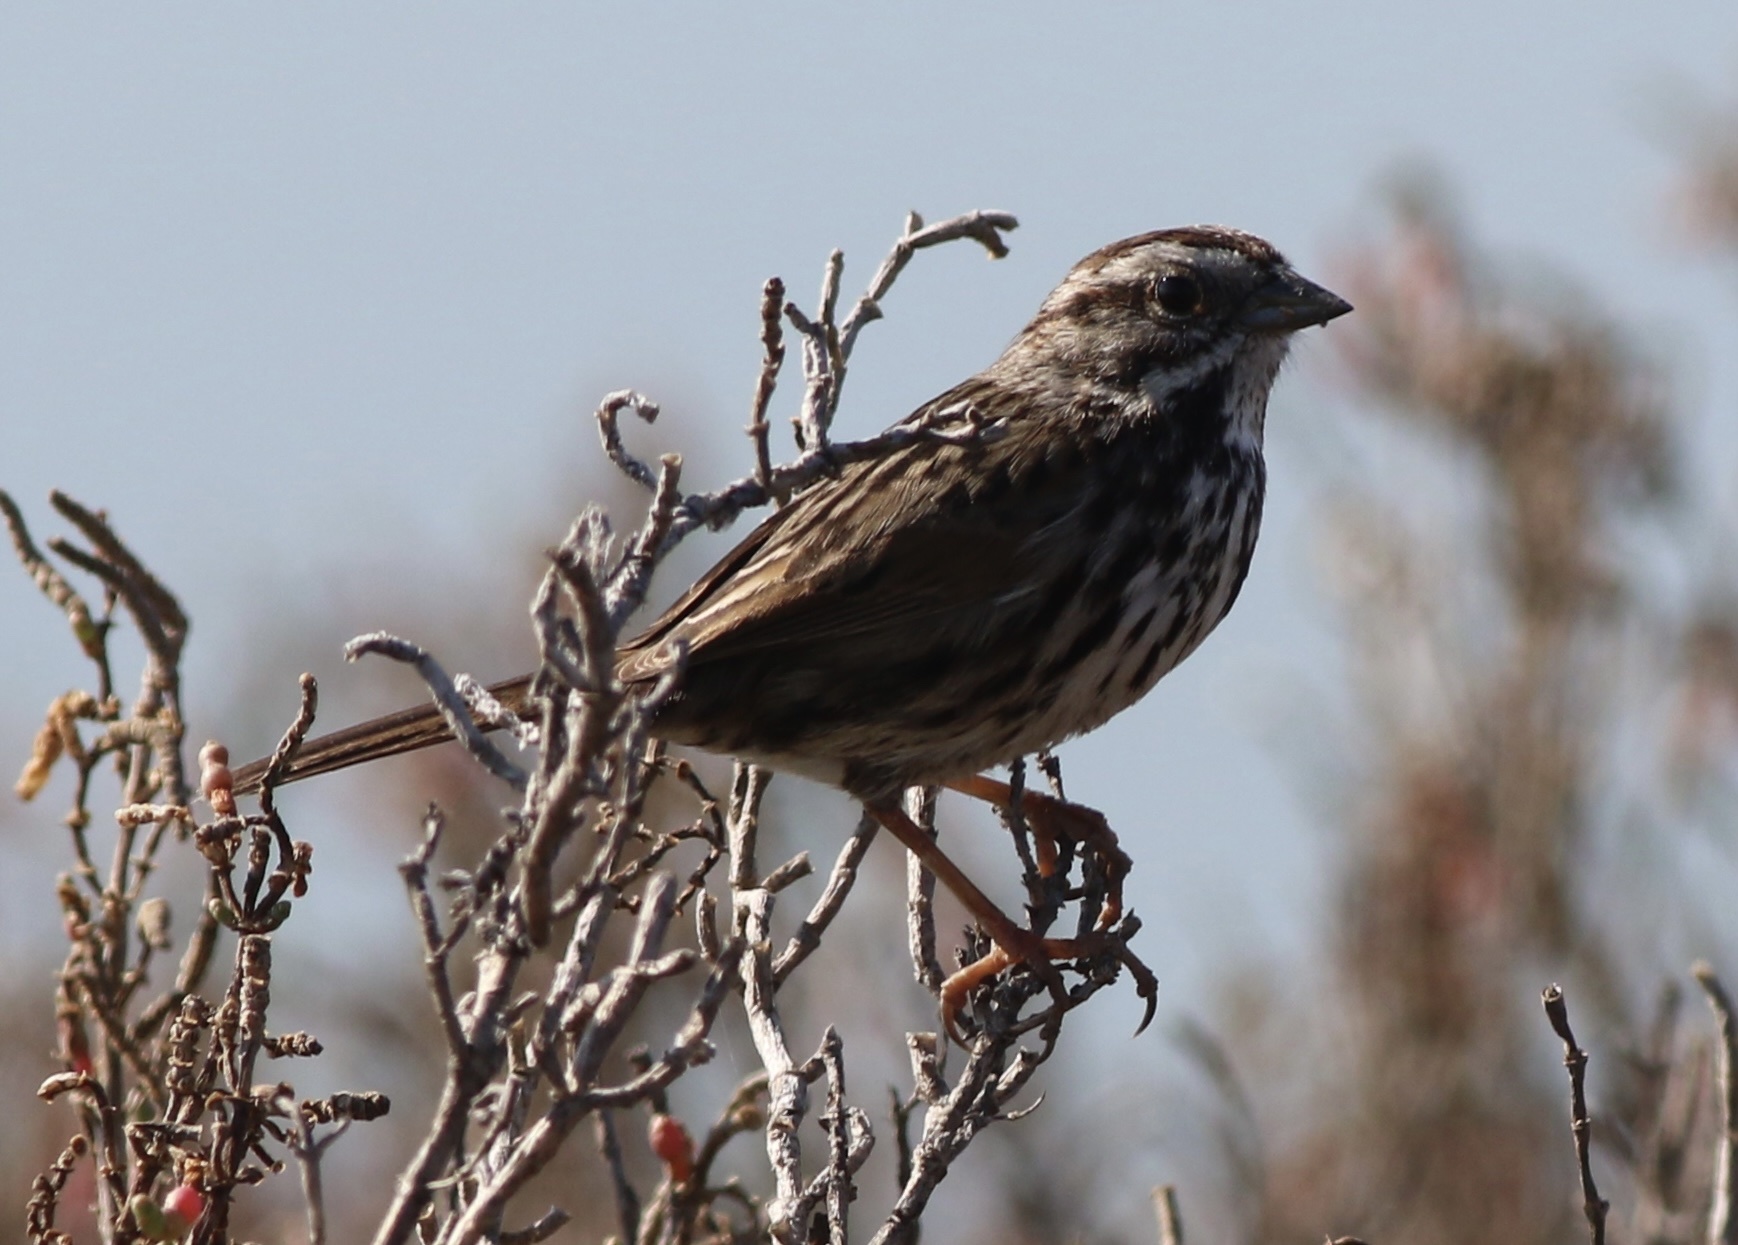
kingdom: Animalia
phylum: Chordata
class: Aves
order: Passeriformes
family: Passerellidae
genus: Melospiza
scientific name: Melospiza melodia
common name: Song sparrow
